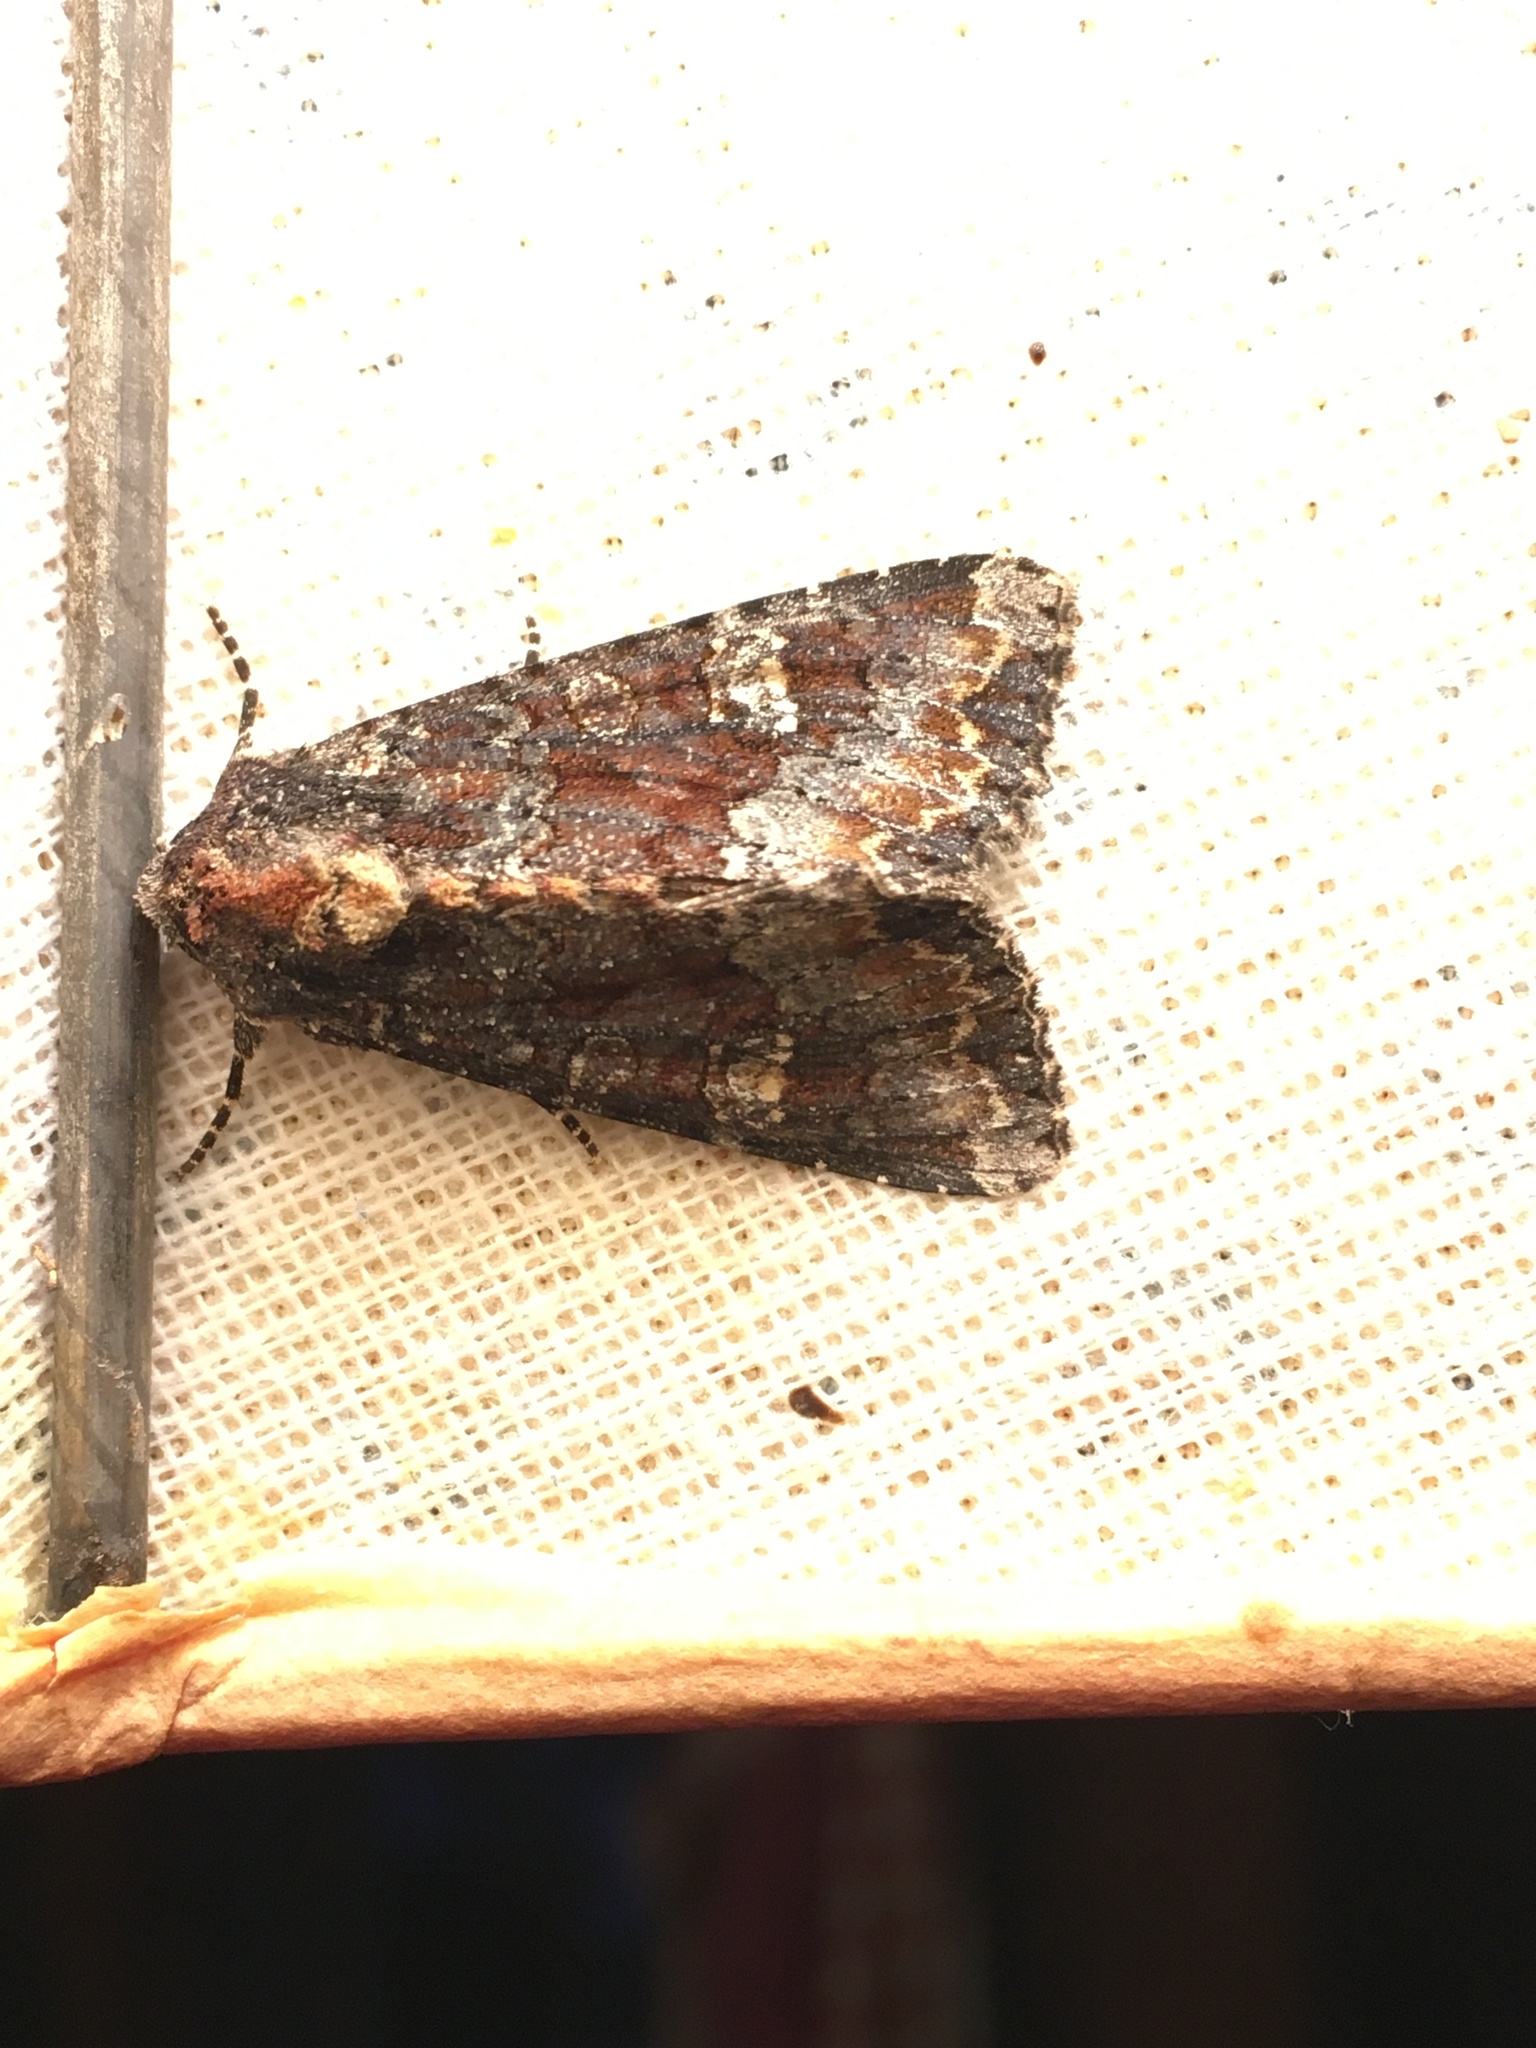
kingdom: Animalia
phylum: Arthropoda
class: Insecta
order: Lepidoptera
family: Noctuidae
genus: Apamea
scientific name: Apamea amputatrix
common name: Yellow-headed cutworm moth
